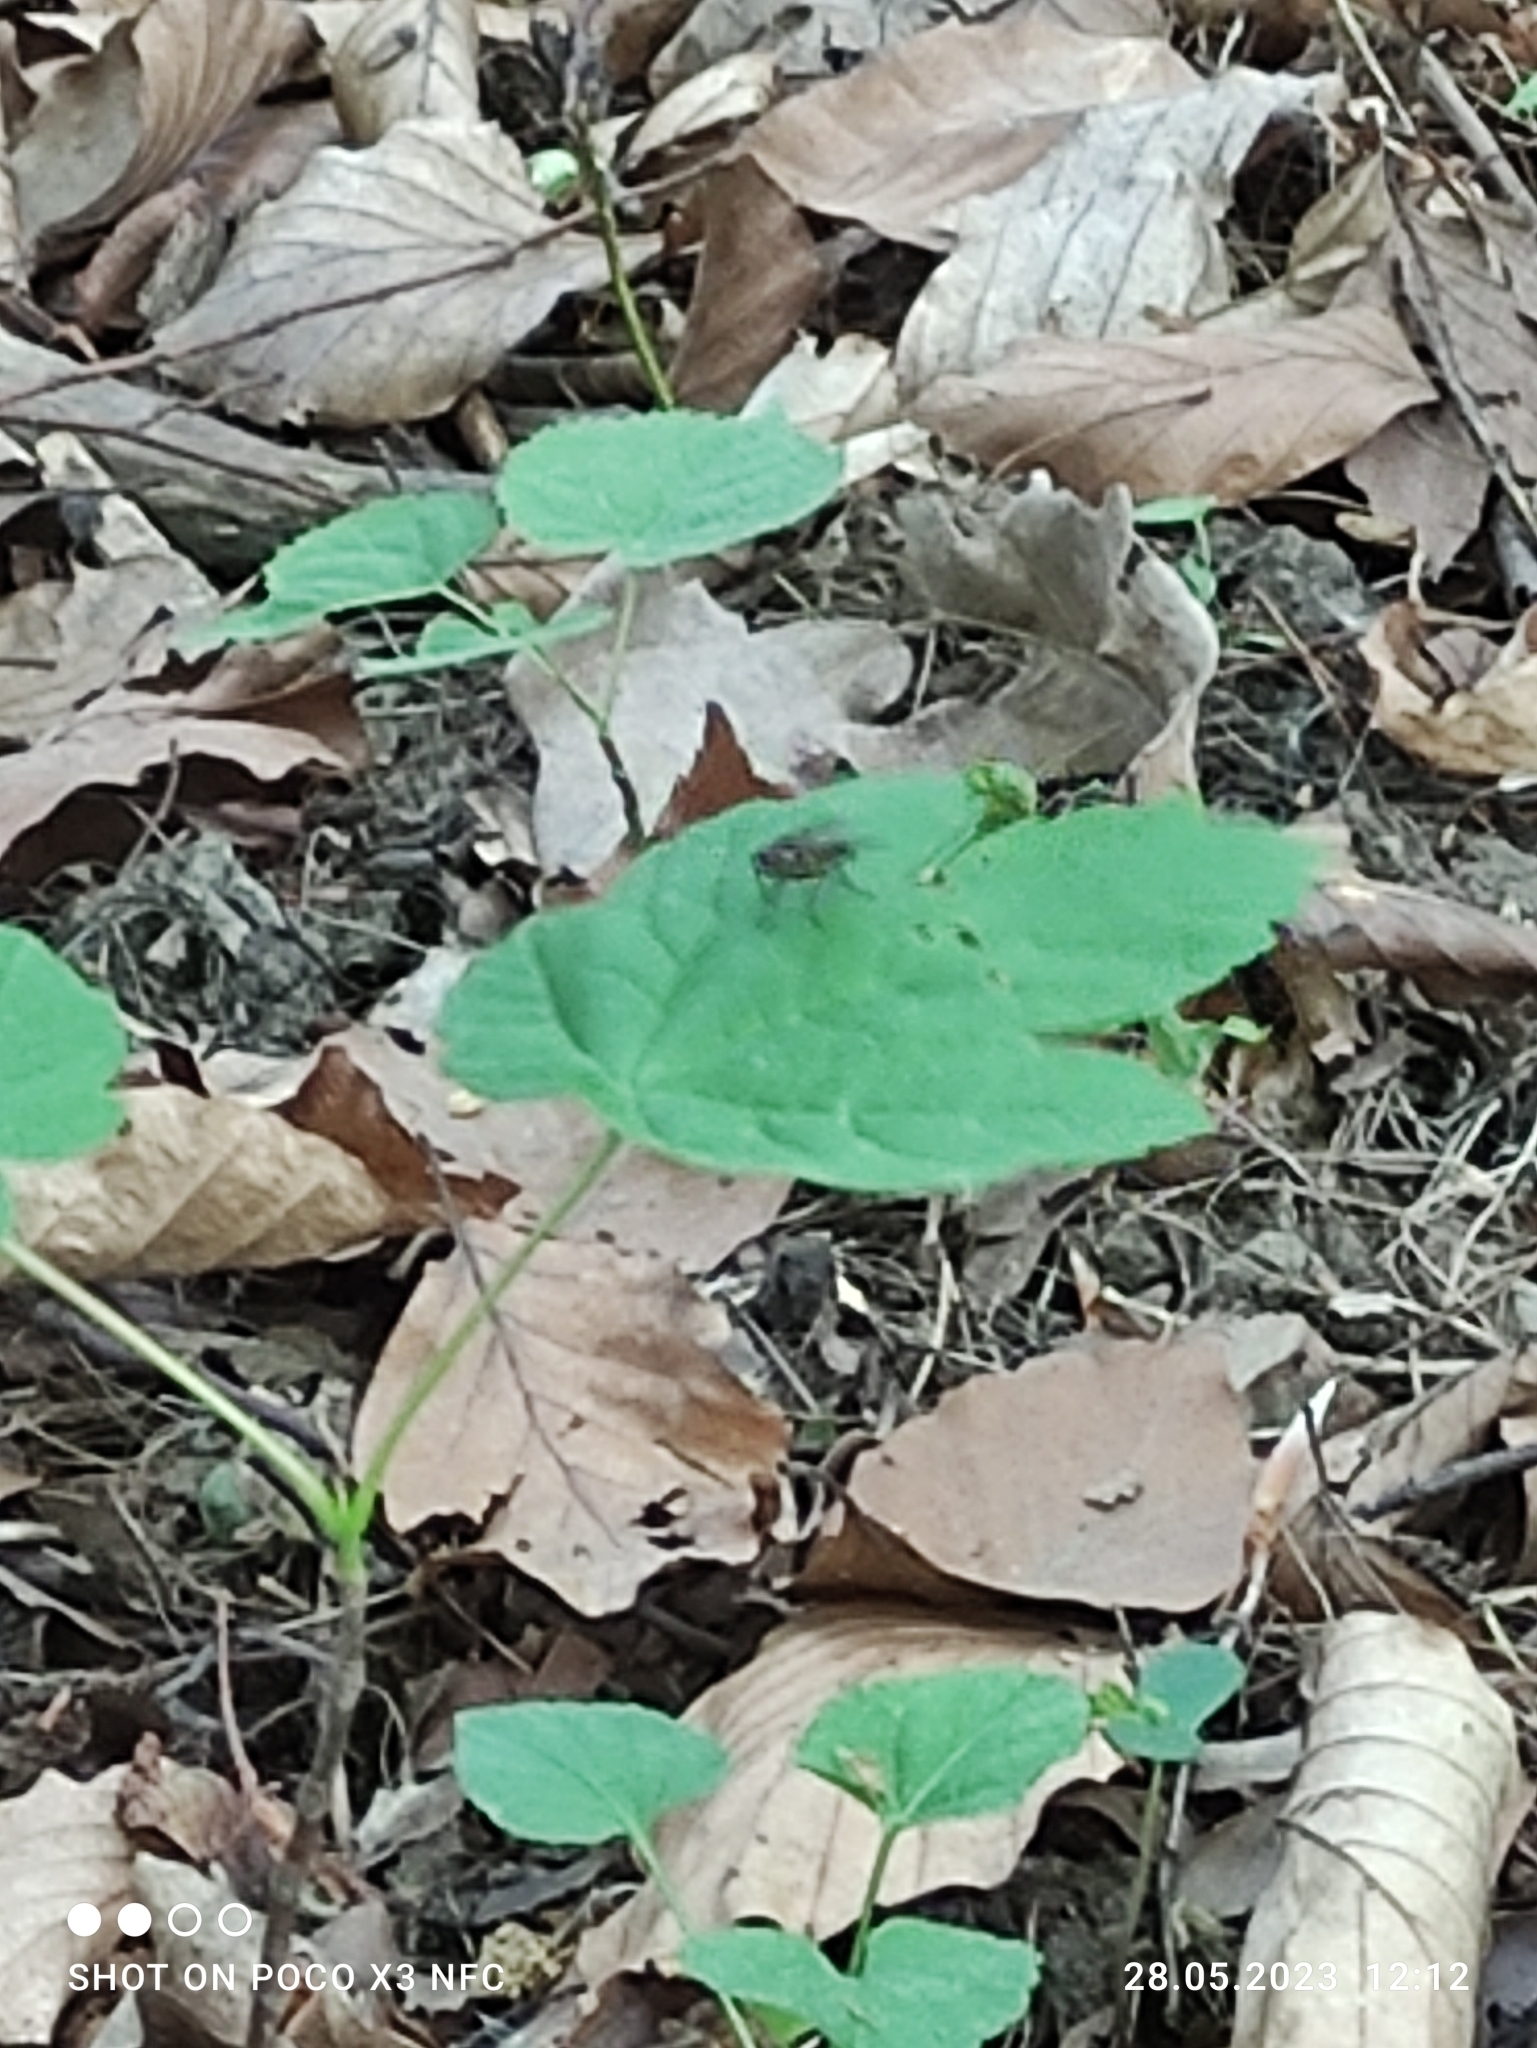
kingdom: Animalia
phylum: Arthropoda
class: Insecta
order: Diptera
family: Anthomyiidae
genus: Hydrophoria
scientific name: Hydrophoria lancifer
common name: Root-maggot fly
